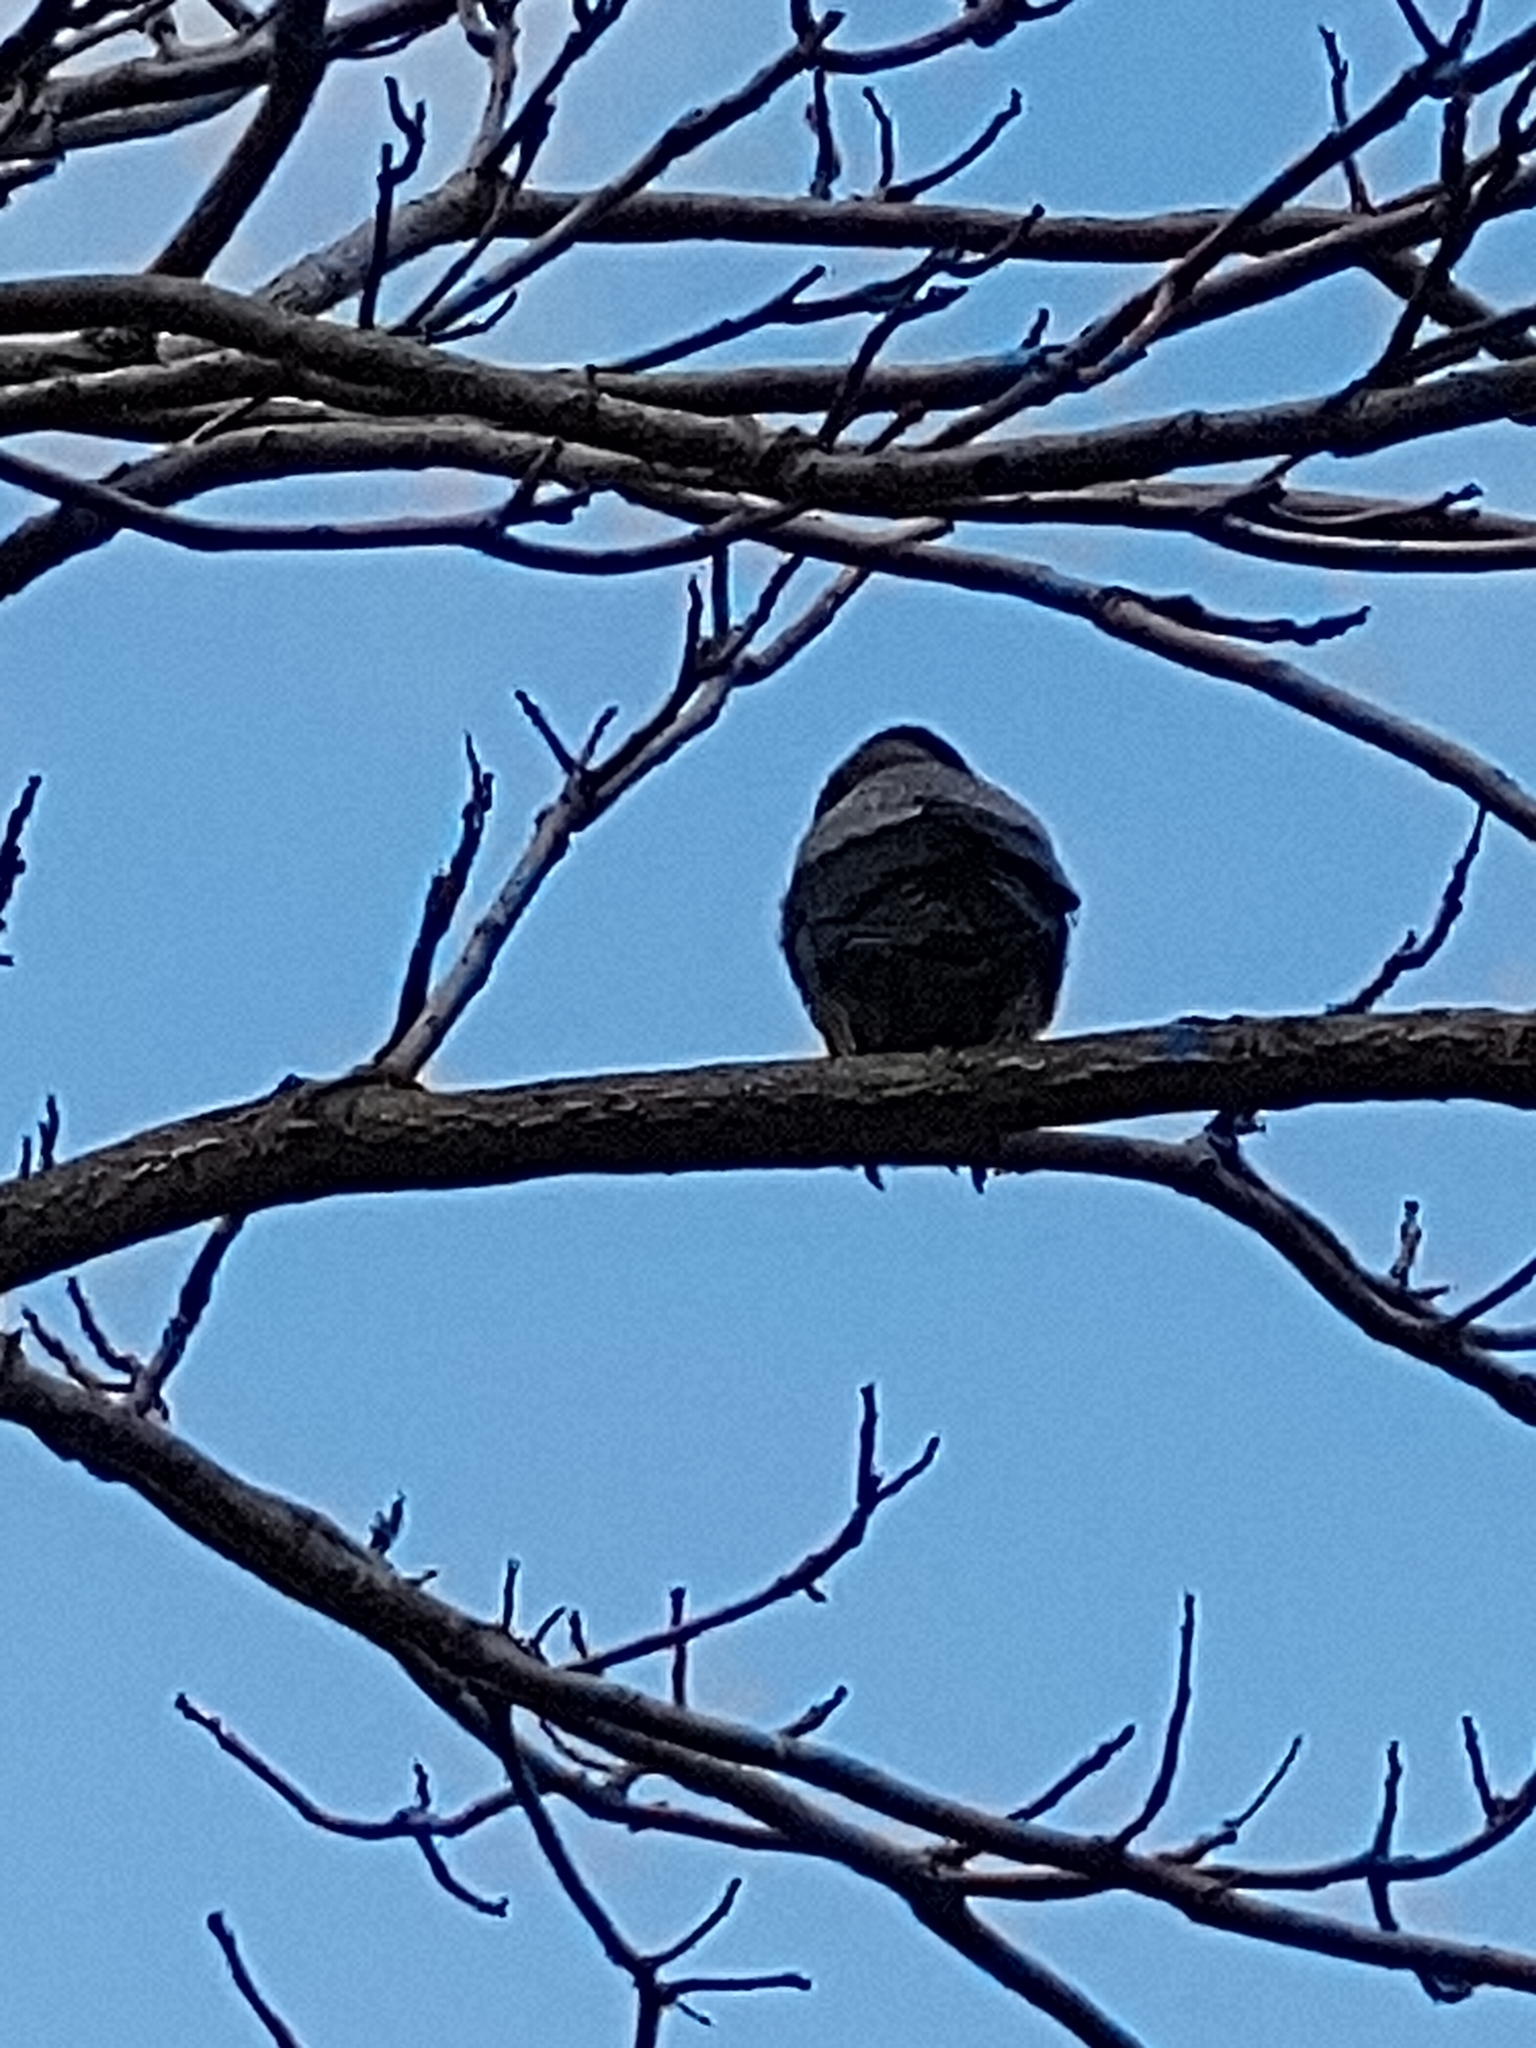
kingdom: Animalia
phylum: Chordata
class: Aves
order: Passeriformes
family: Corvidae
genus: Corvus
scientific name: Corvus cornix
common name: Hooded crow
